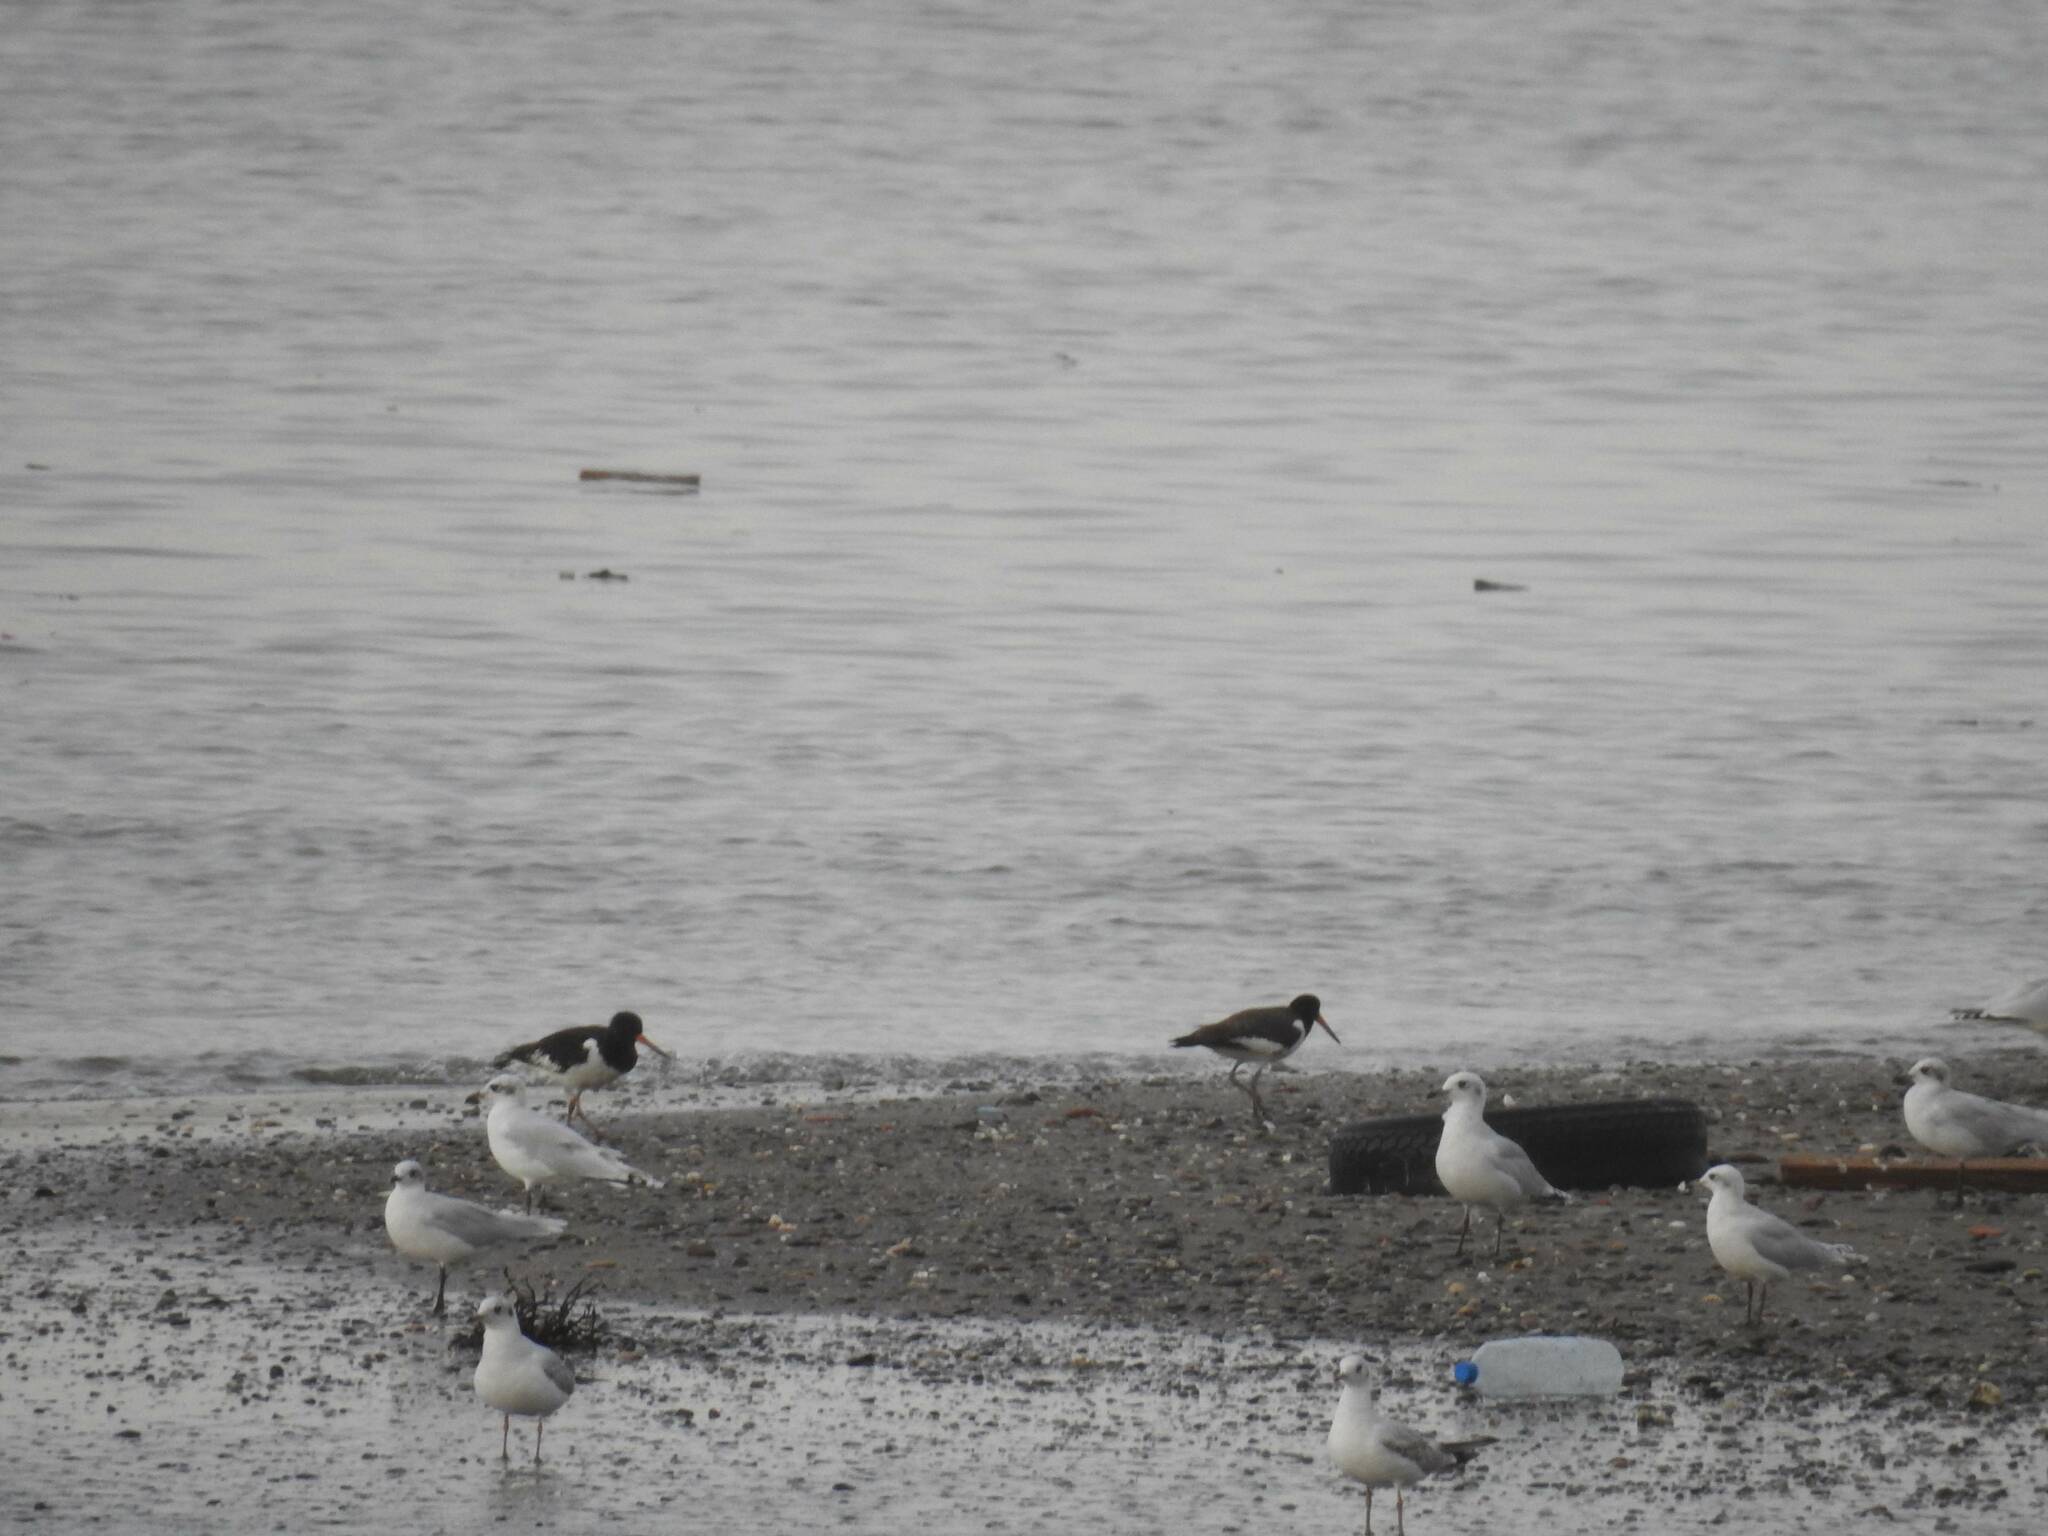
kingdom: Animalia
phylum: Chordata
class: Aves
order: Charadriiformes
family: Haematopodidae
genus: Haematopus
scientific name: Haematopus ostralegus
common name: Eurasian oystercatcher
